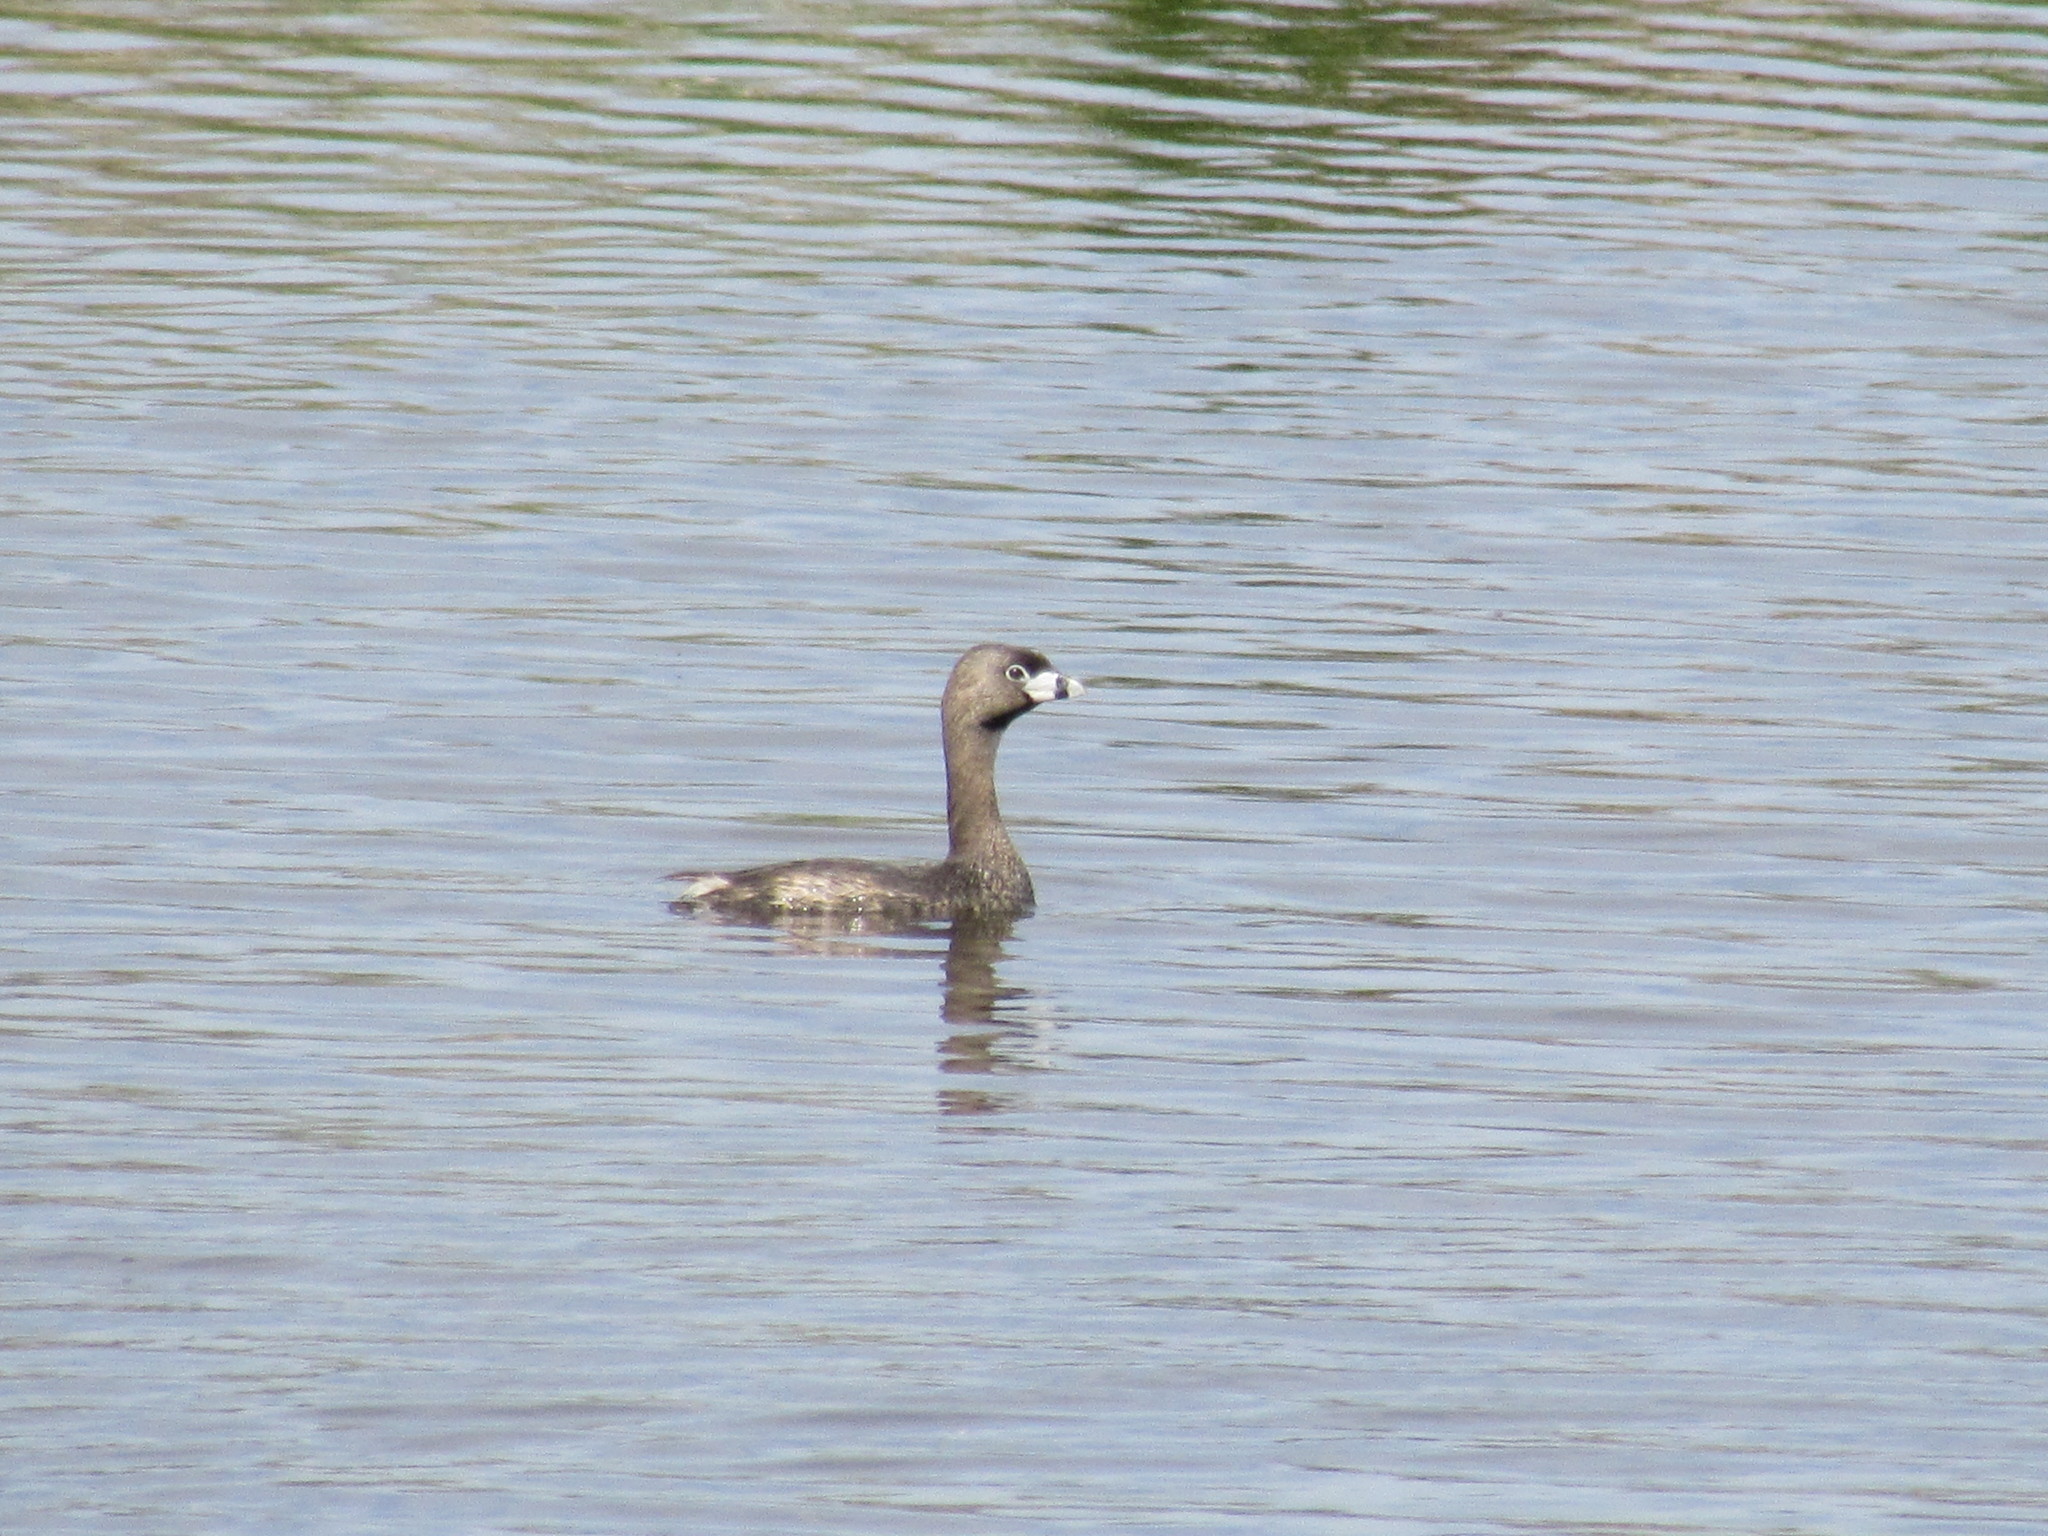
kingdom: Animalia
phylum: Chordata
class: Aves
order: Podicipediformes
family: Podicipedidae
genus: Podilymbus
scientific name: Podilymbus podiceps
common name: Pied-billed grebe
